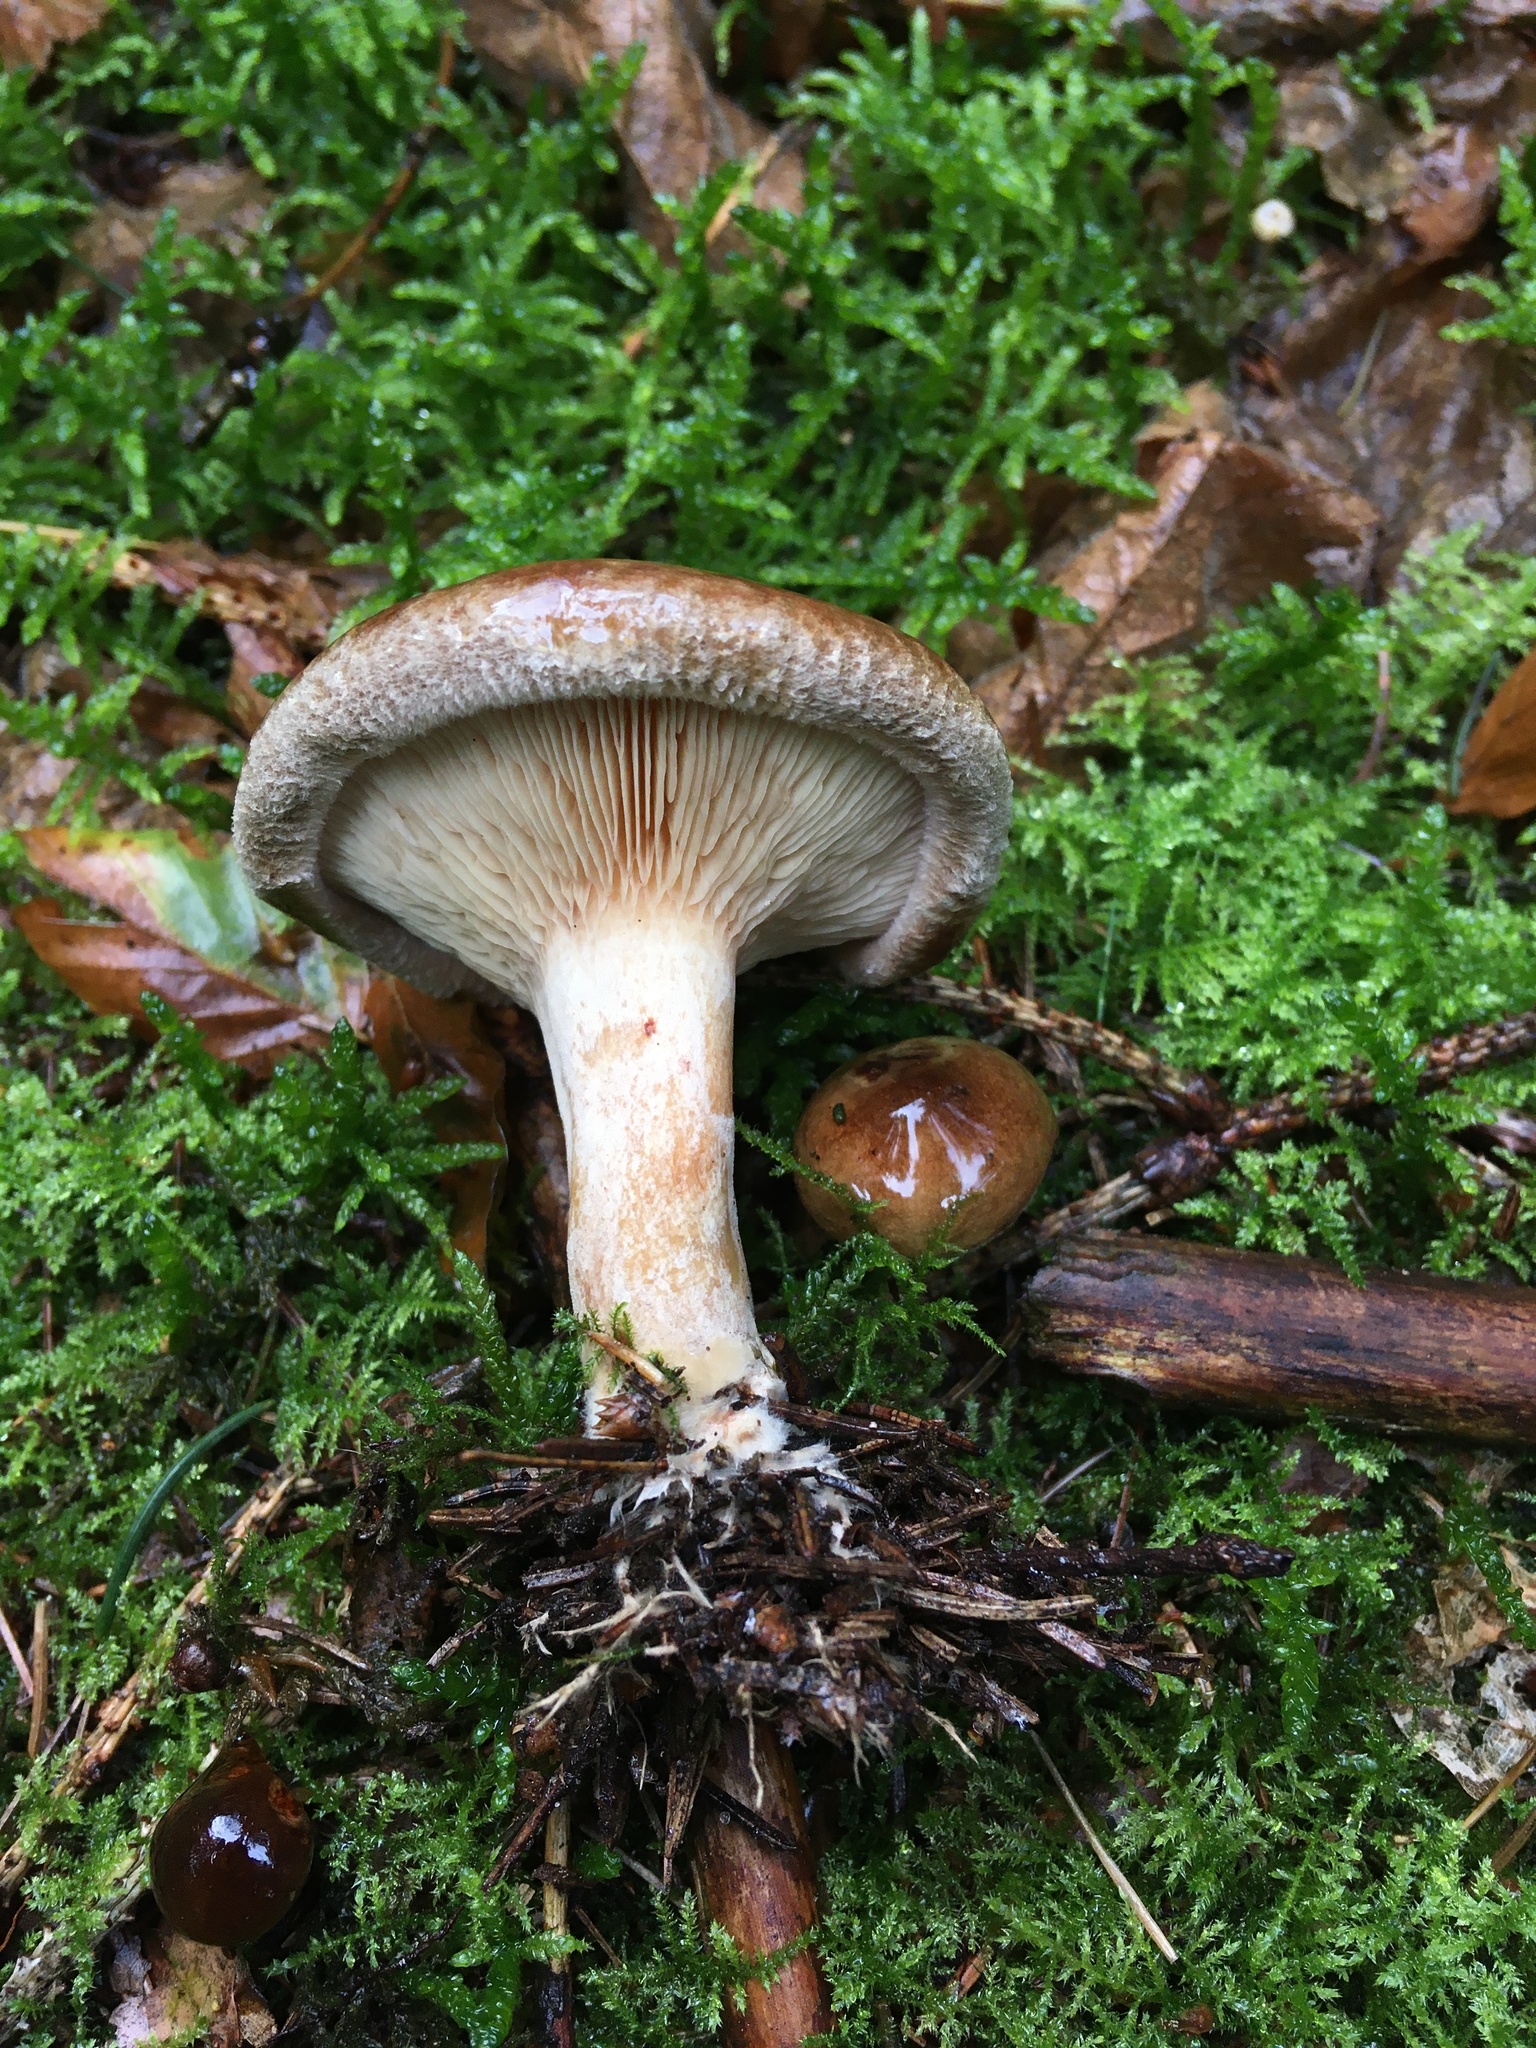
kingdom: Fungi
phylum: Basidiomycota
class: Agaricomycetes
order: Boletales
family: Paxillaceae
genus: Paxillus
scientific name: Paxillus involutus
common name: Brown roll rim
